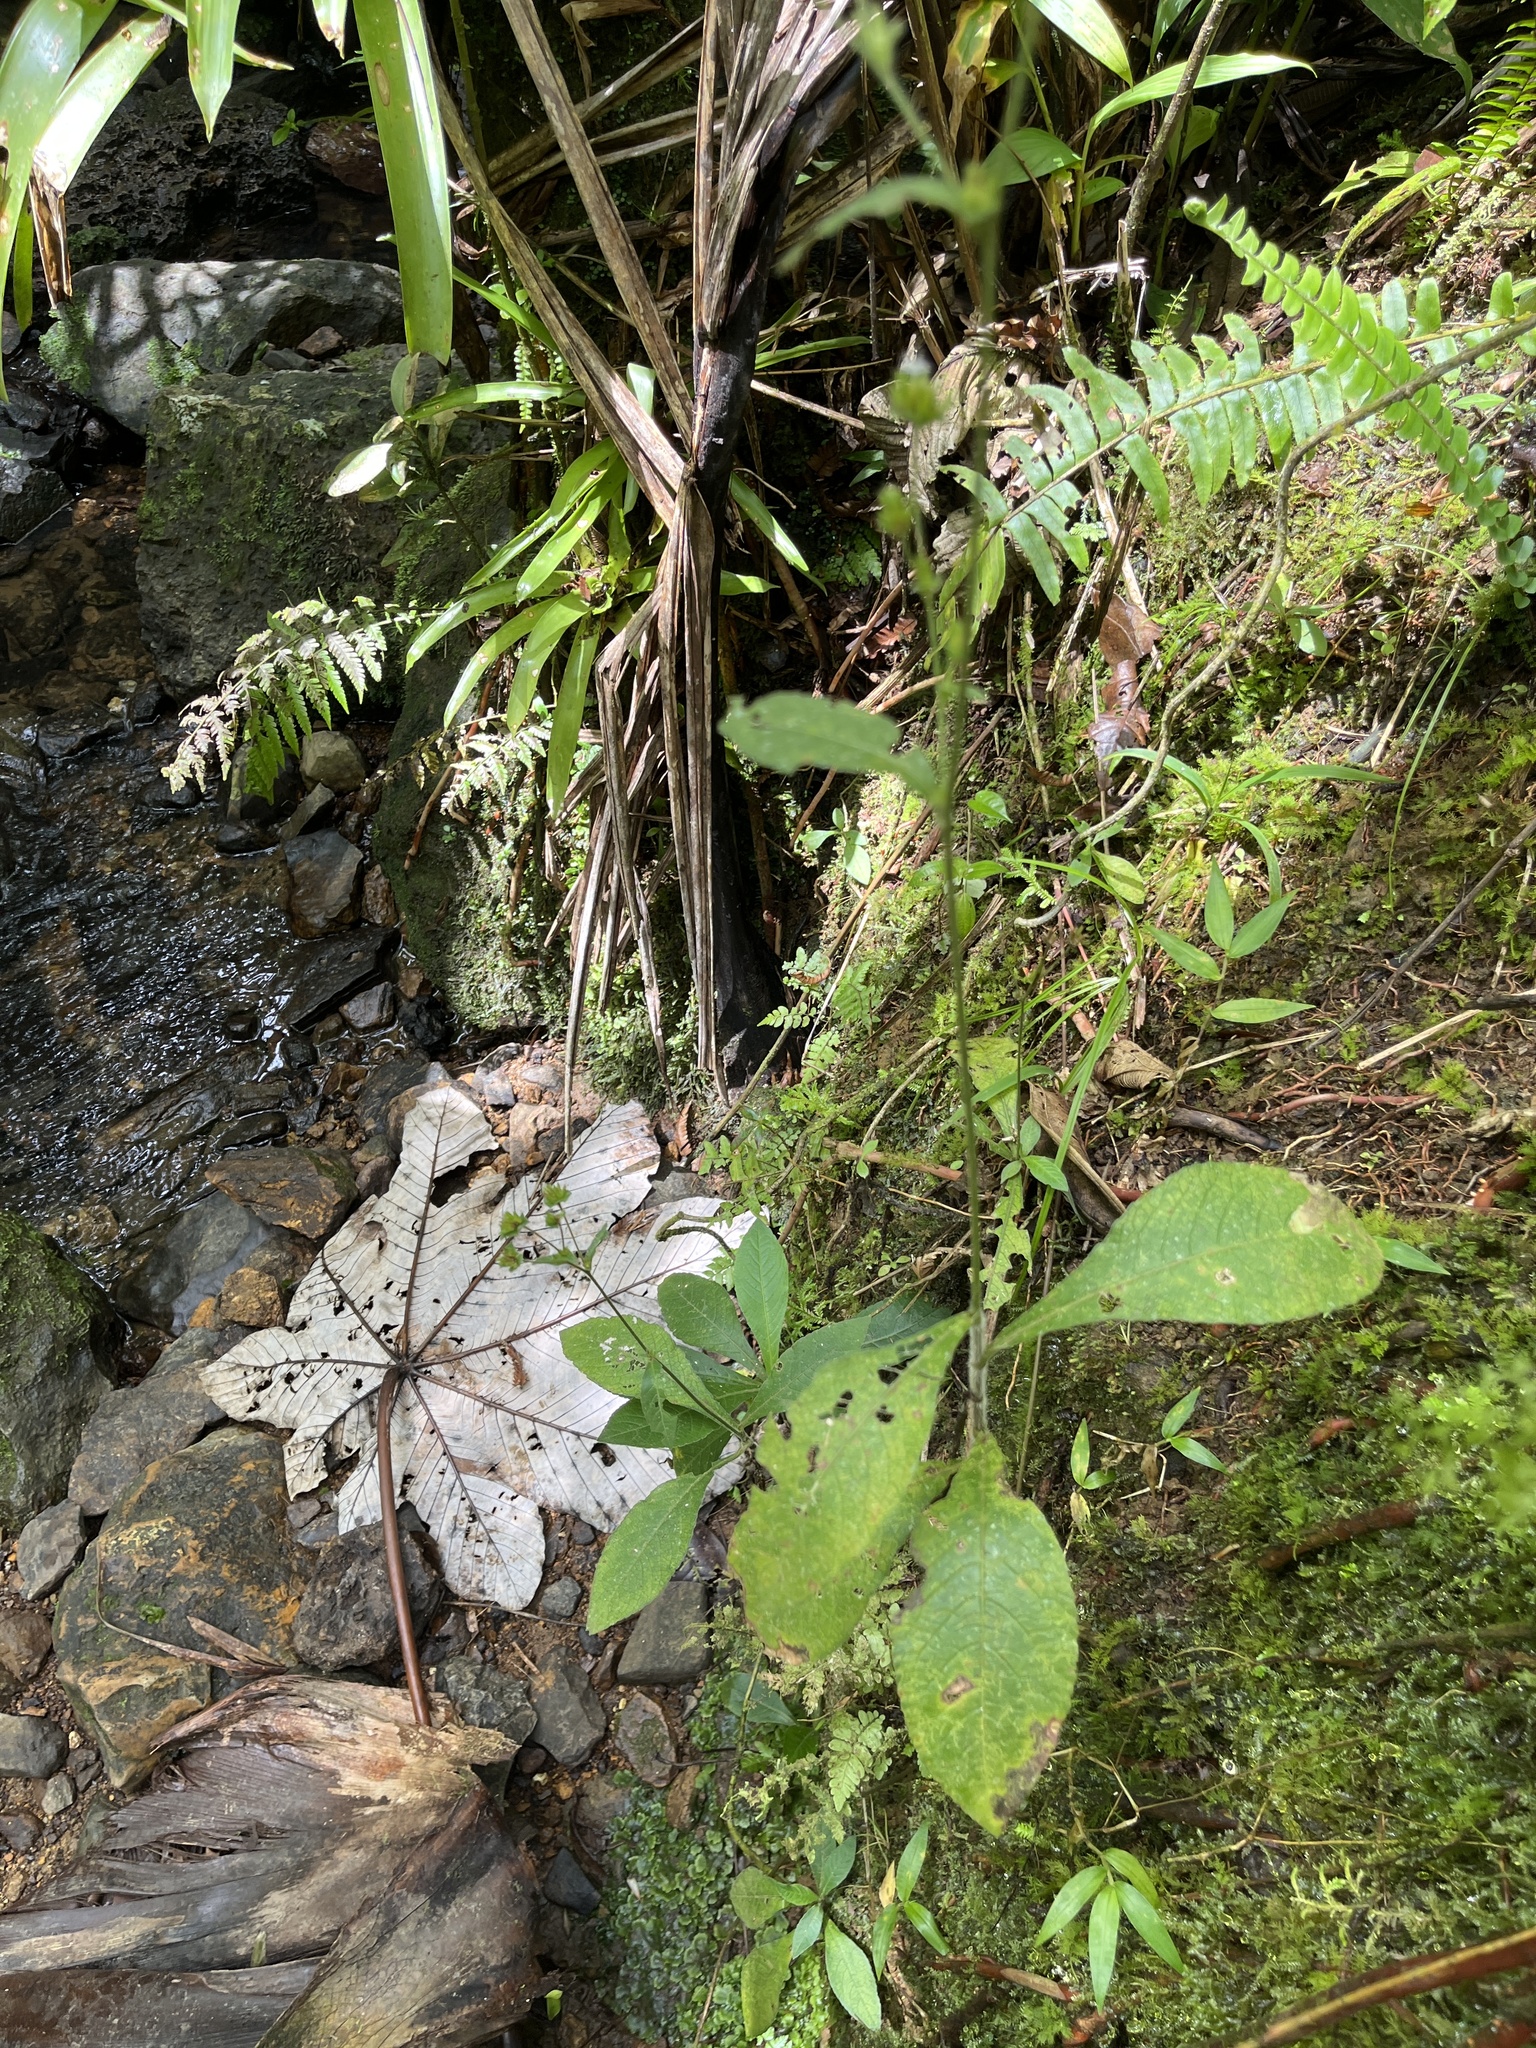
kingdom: Plantae
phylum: Tracheophyta
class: Magnoliopsida
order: Asterales
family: Asteraceae
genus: Elephantopus
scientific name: Elephantopus mollis
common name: Soft elephantsfoot
